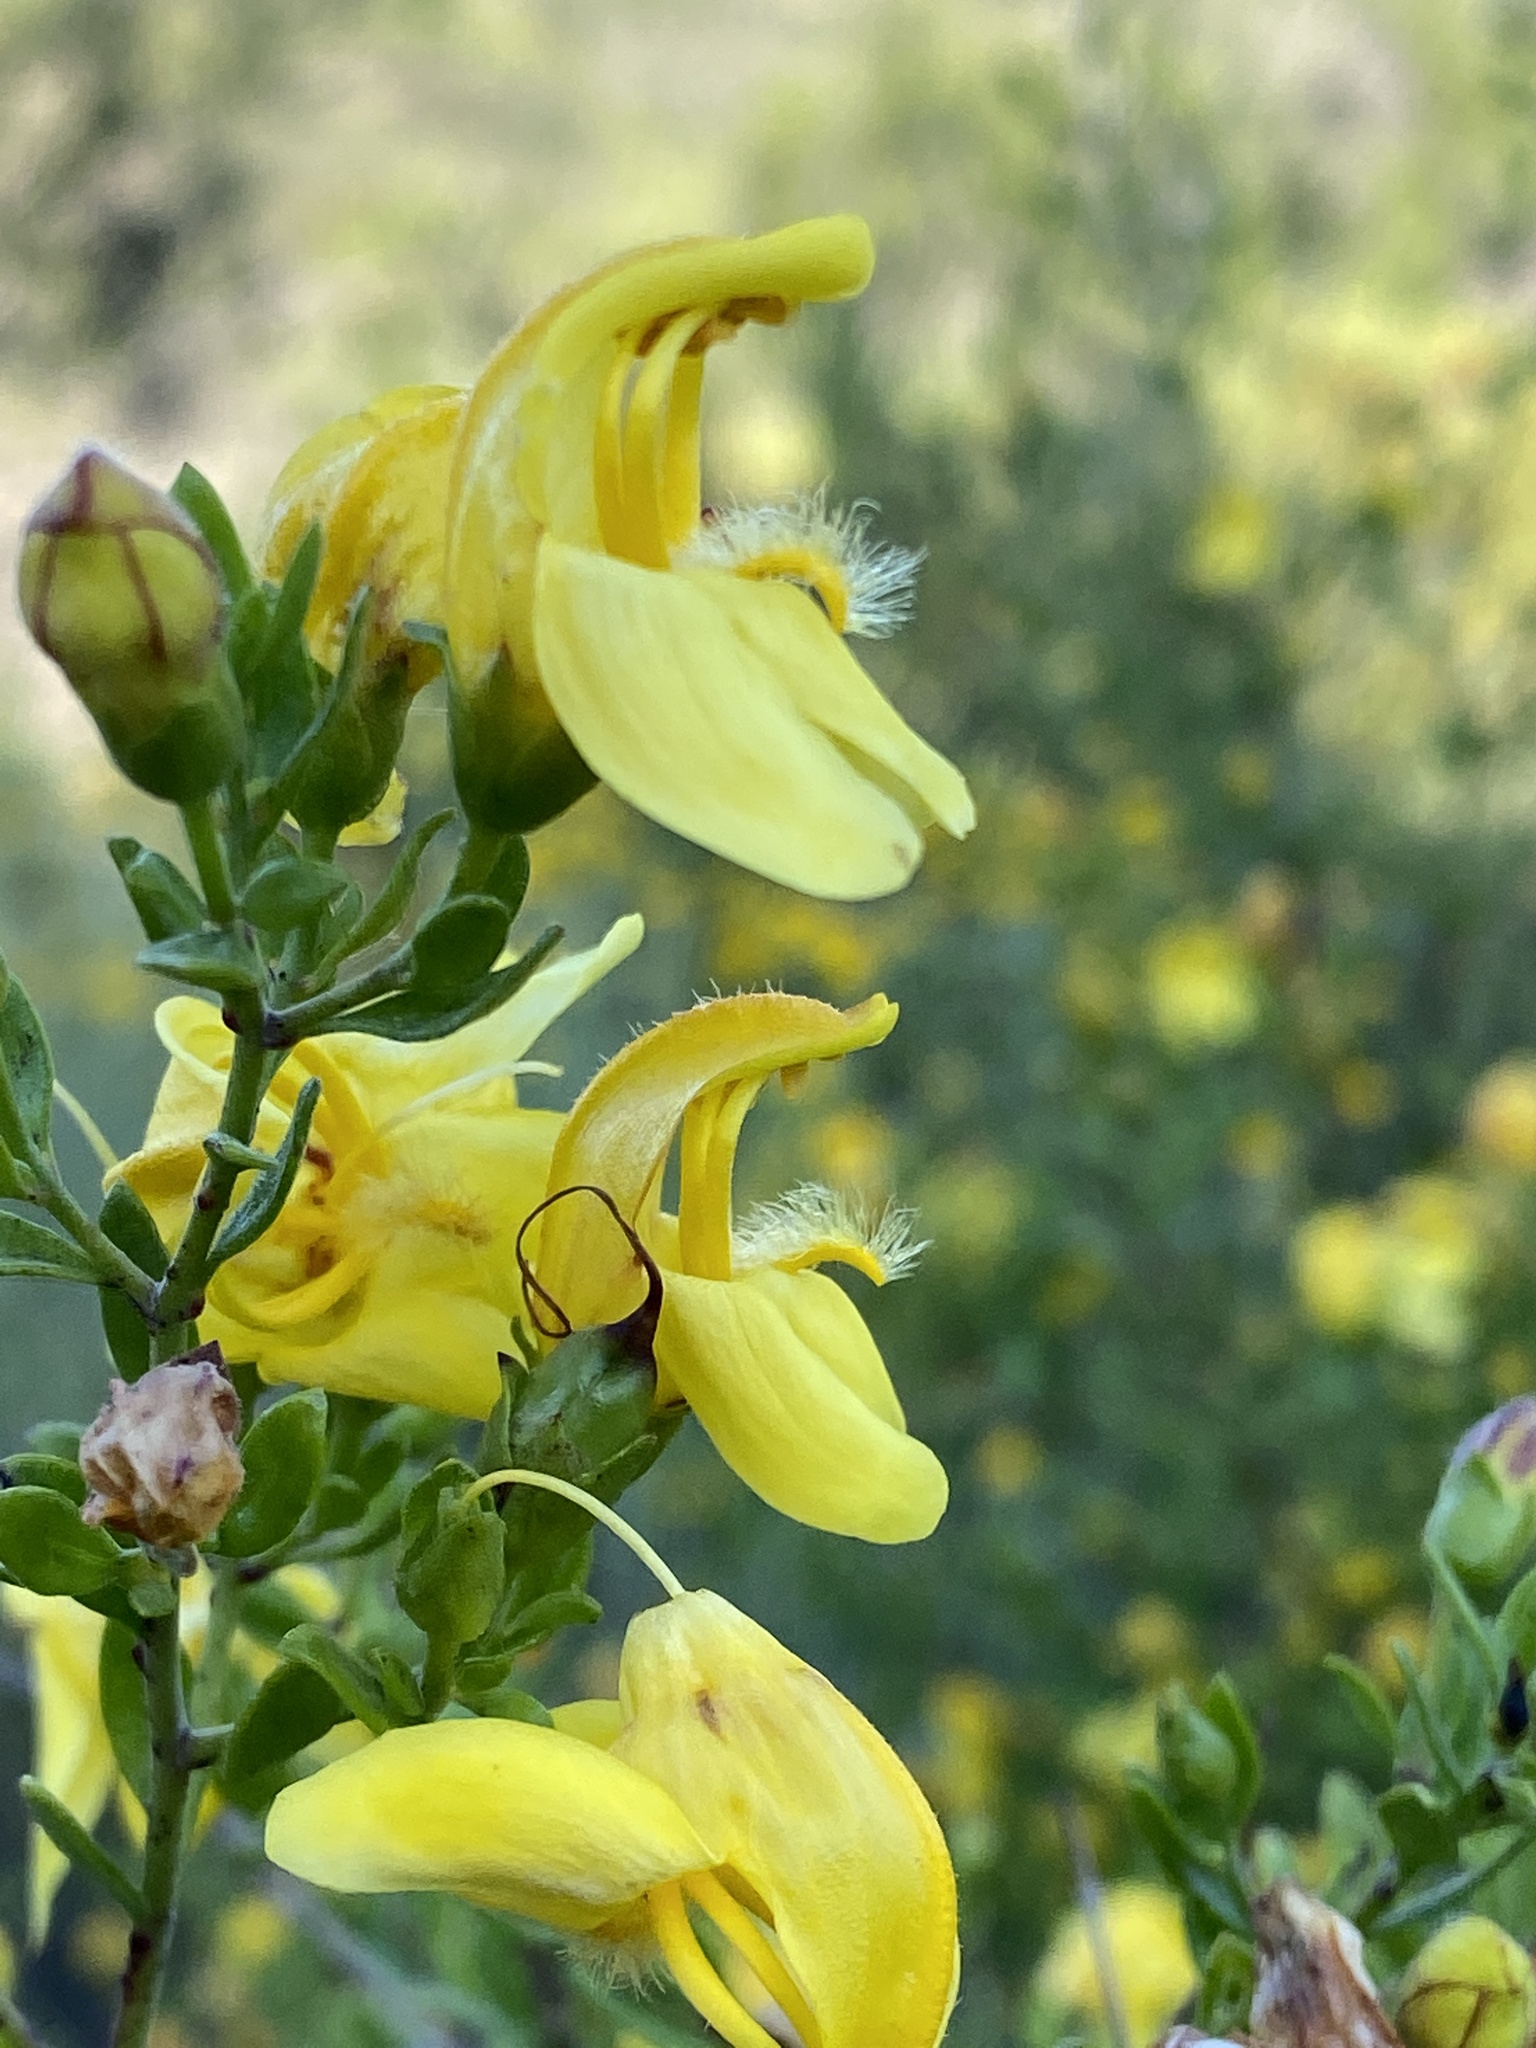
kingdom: Plantae
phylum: Tracheophyta
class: Magnoliopsida
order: Lamiales
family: Plantaginaceae
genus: Keckiella
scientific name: Keckiella antirrhinoides
